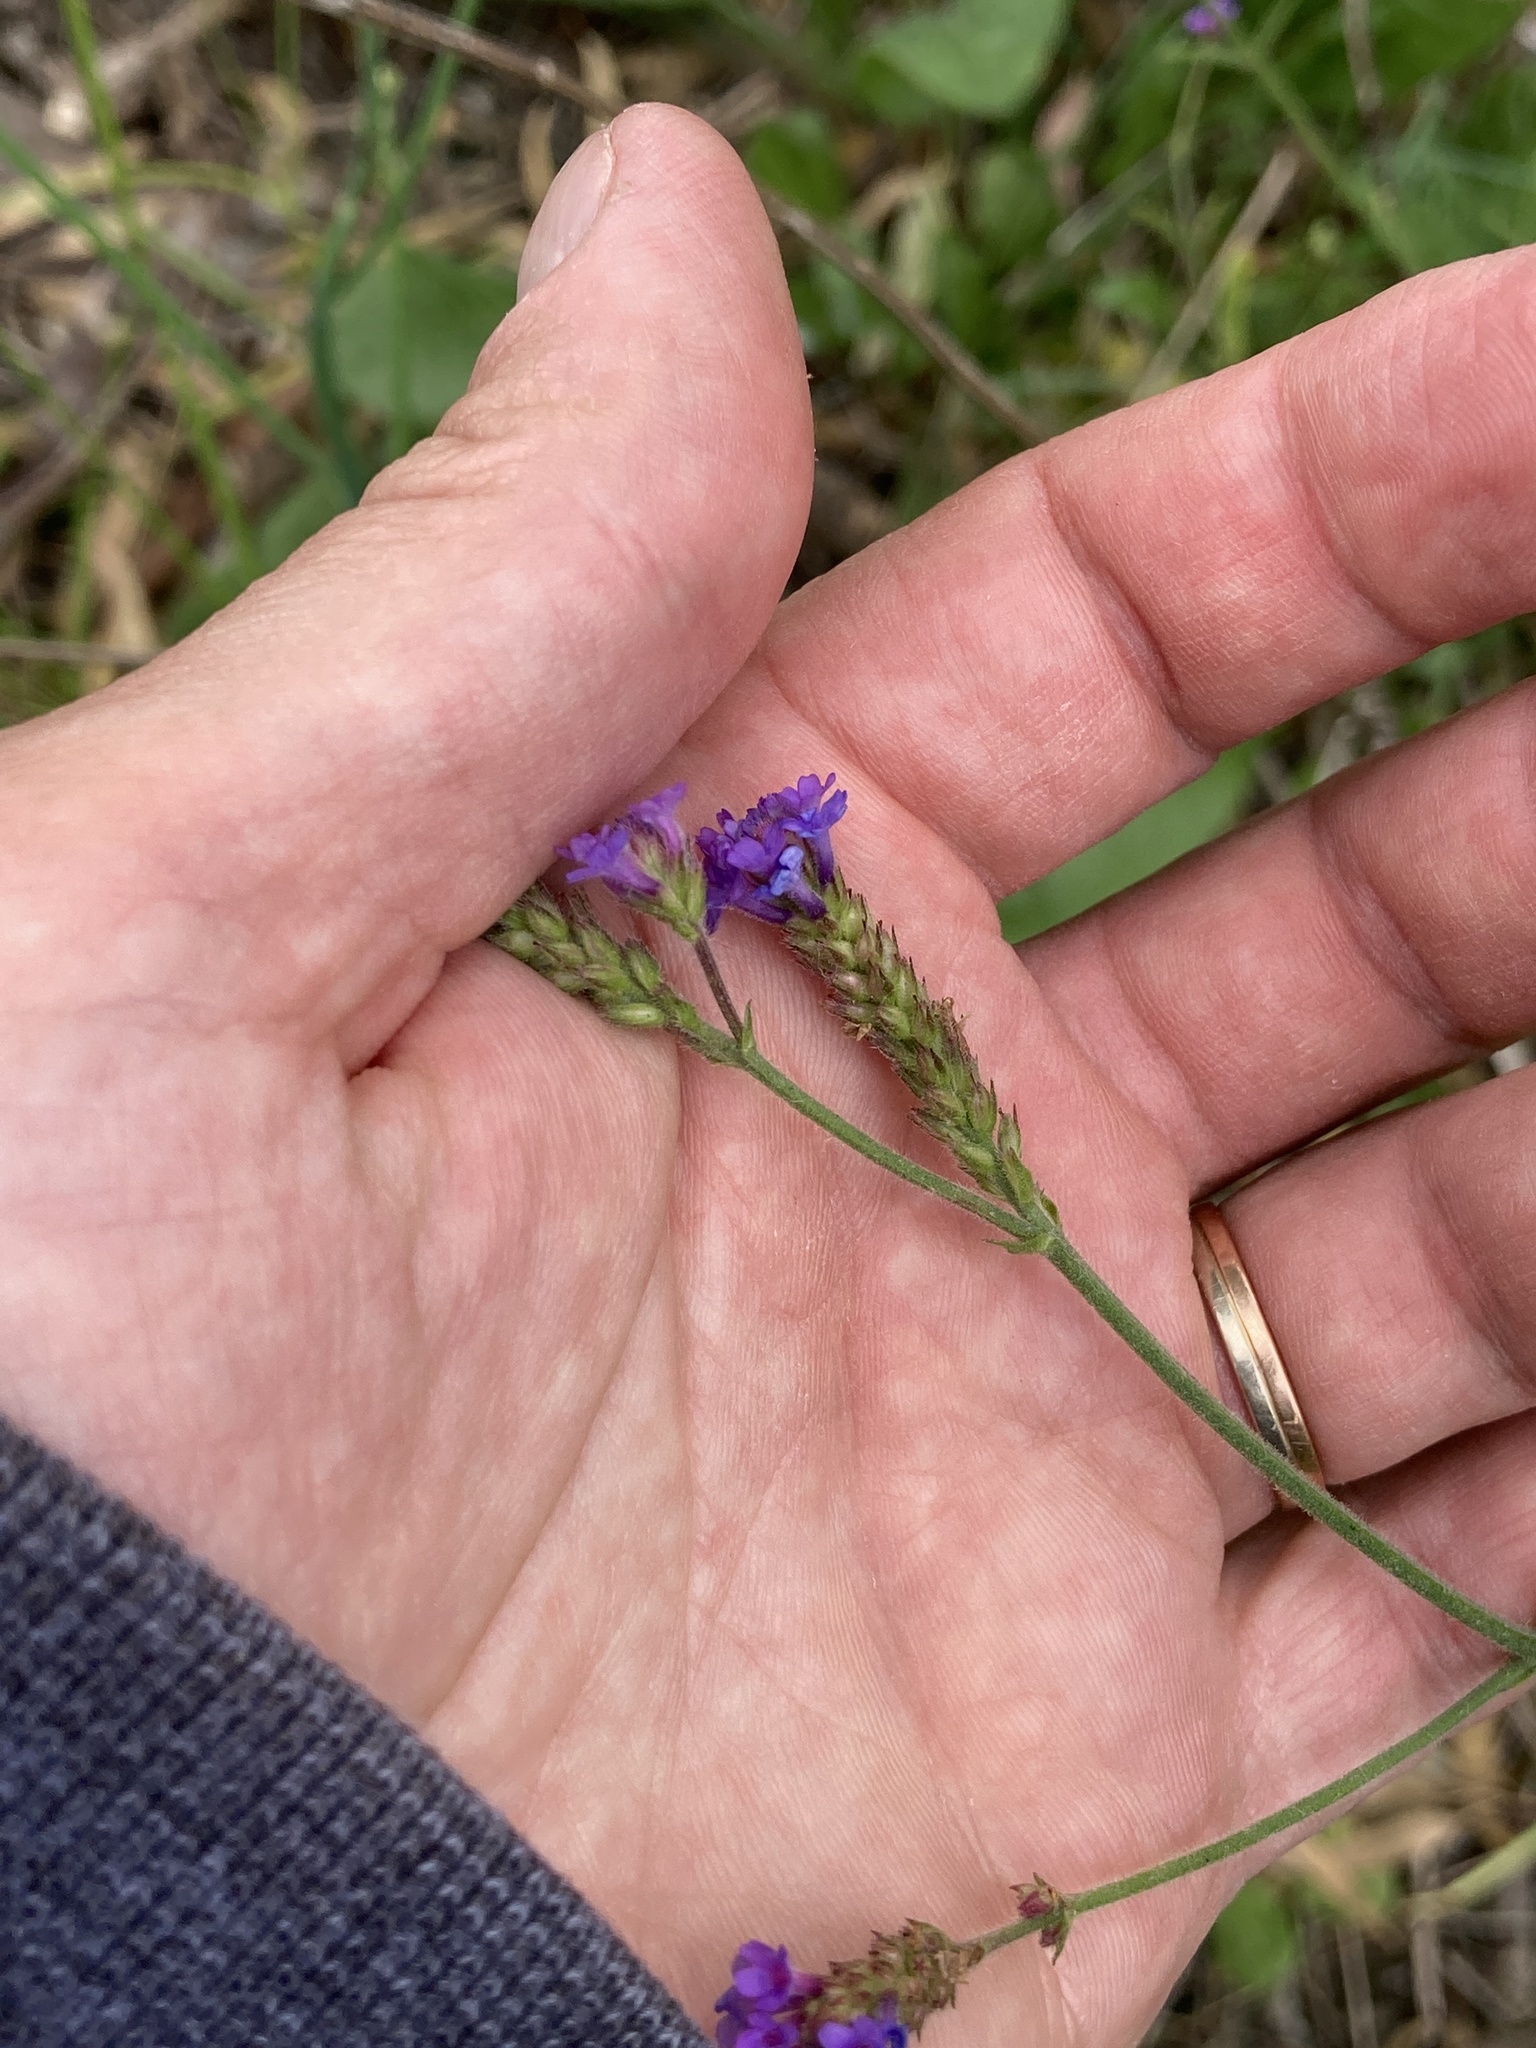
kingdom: Plantae
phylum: Tracheophyta
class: Magnoliopsida
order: Lamiales
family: Verbenaceae
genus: Verbena
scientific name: Verbena intermedia
